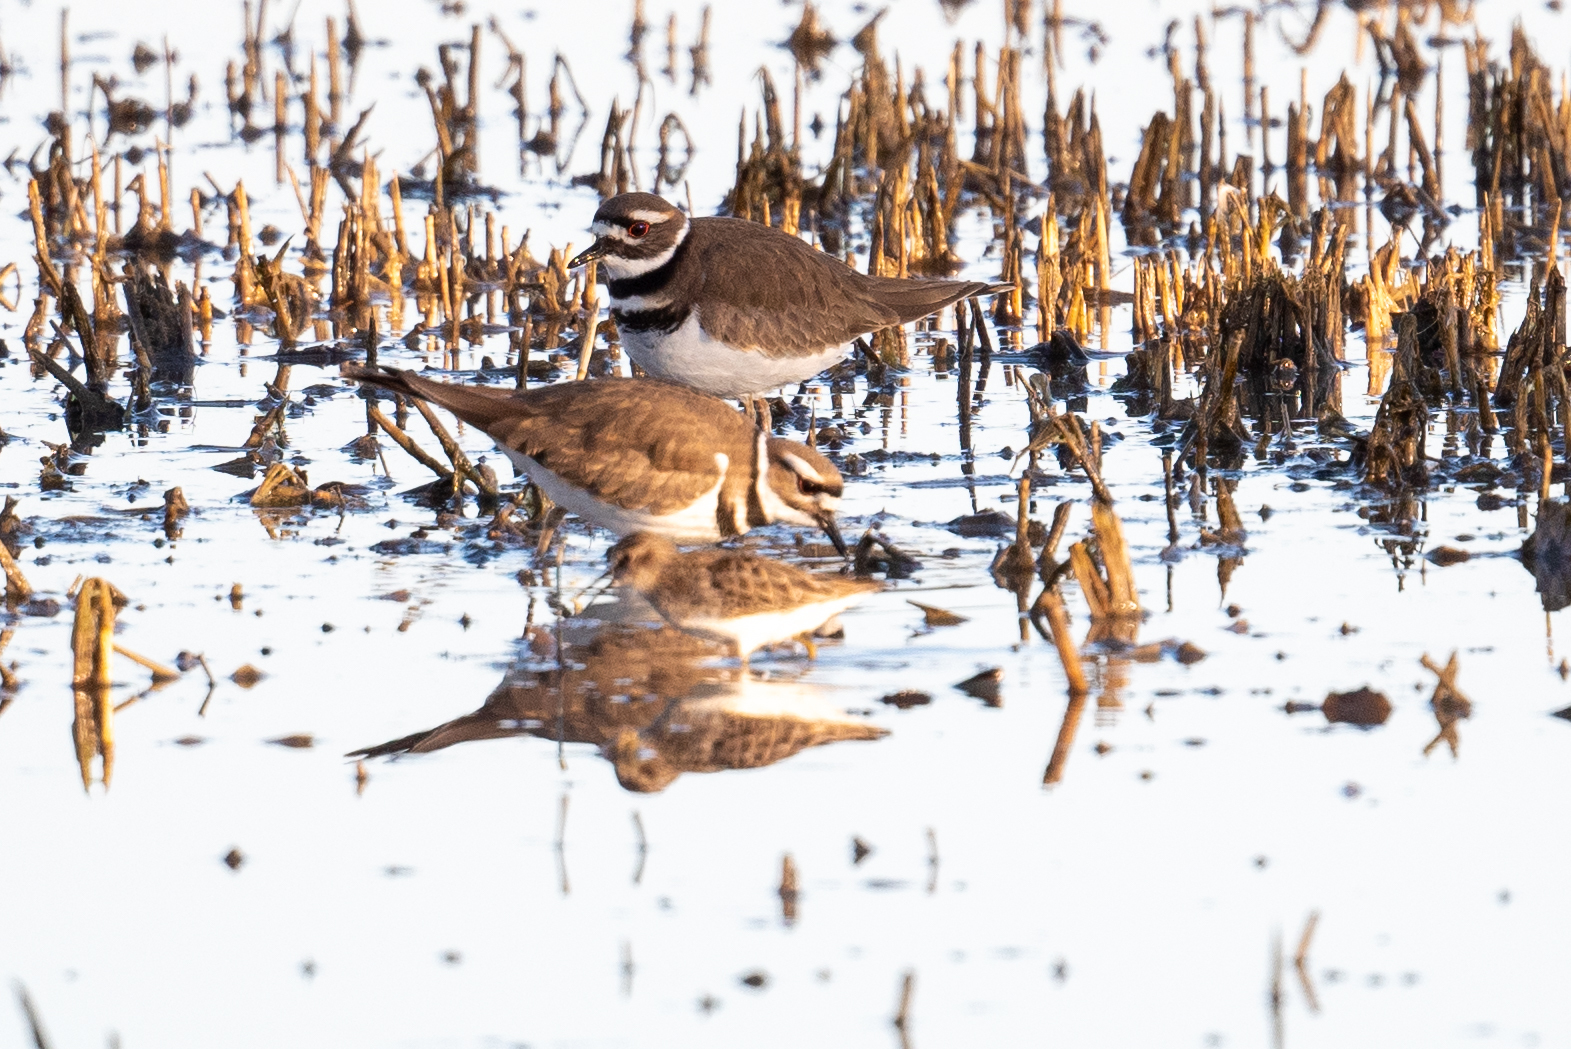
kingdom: Animalia
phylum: Chordata
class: Aves
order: Charadriiformes
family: Charadriidae
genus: Charadrius
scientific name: Charadrius vociferus
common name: Killdeer
